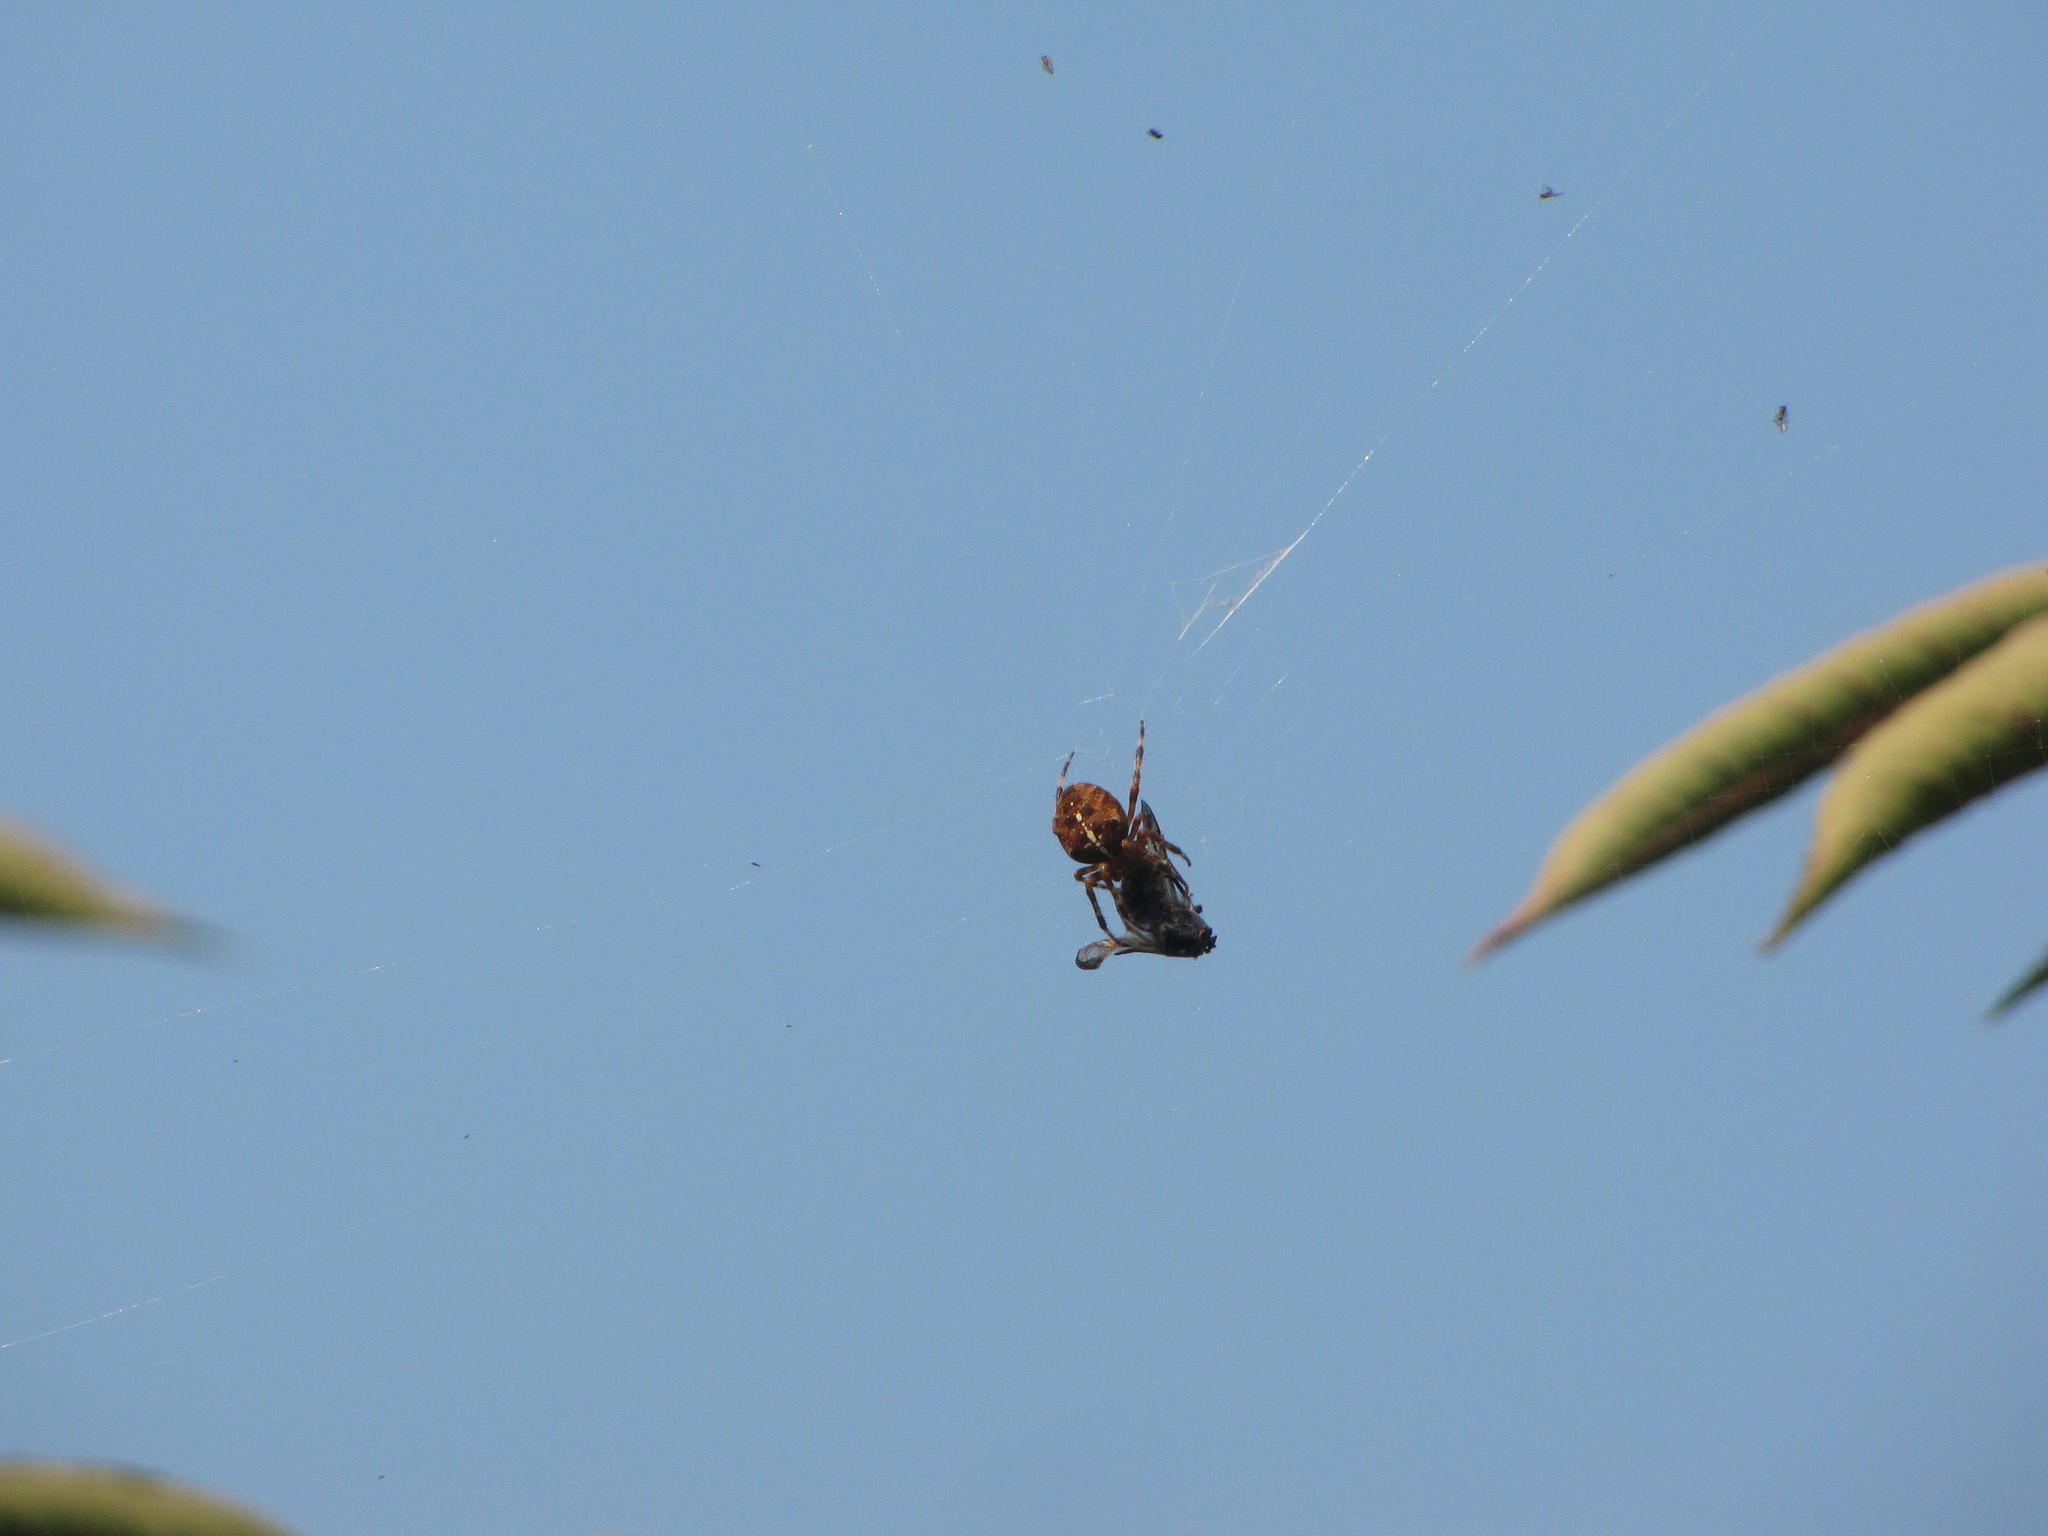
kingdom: Animalia
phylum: Arthropoda
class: Arachnida
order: Araneae
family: Araneidae
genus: Araneus
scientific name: Araneus diadematus
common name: Cross orbweaver
